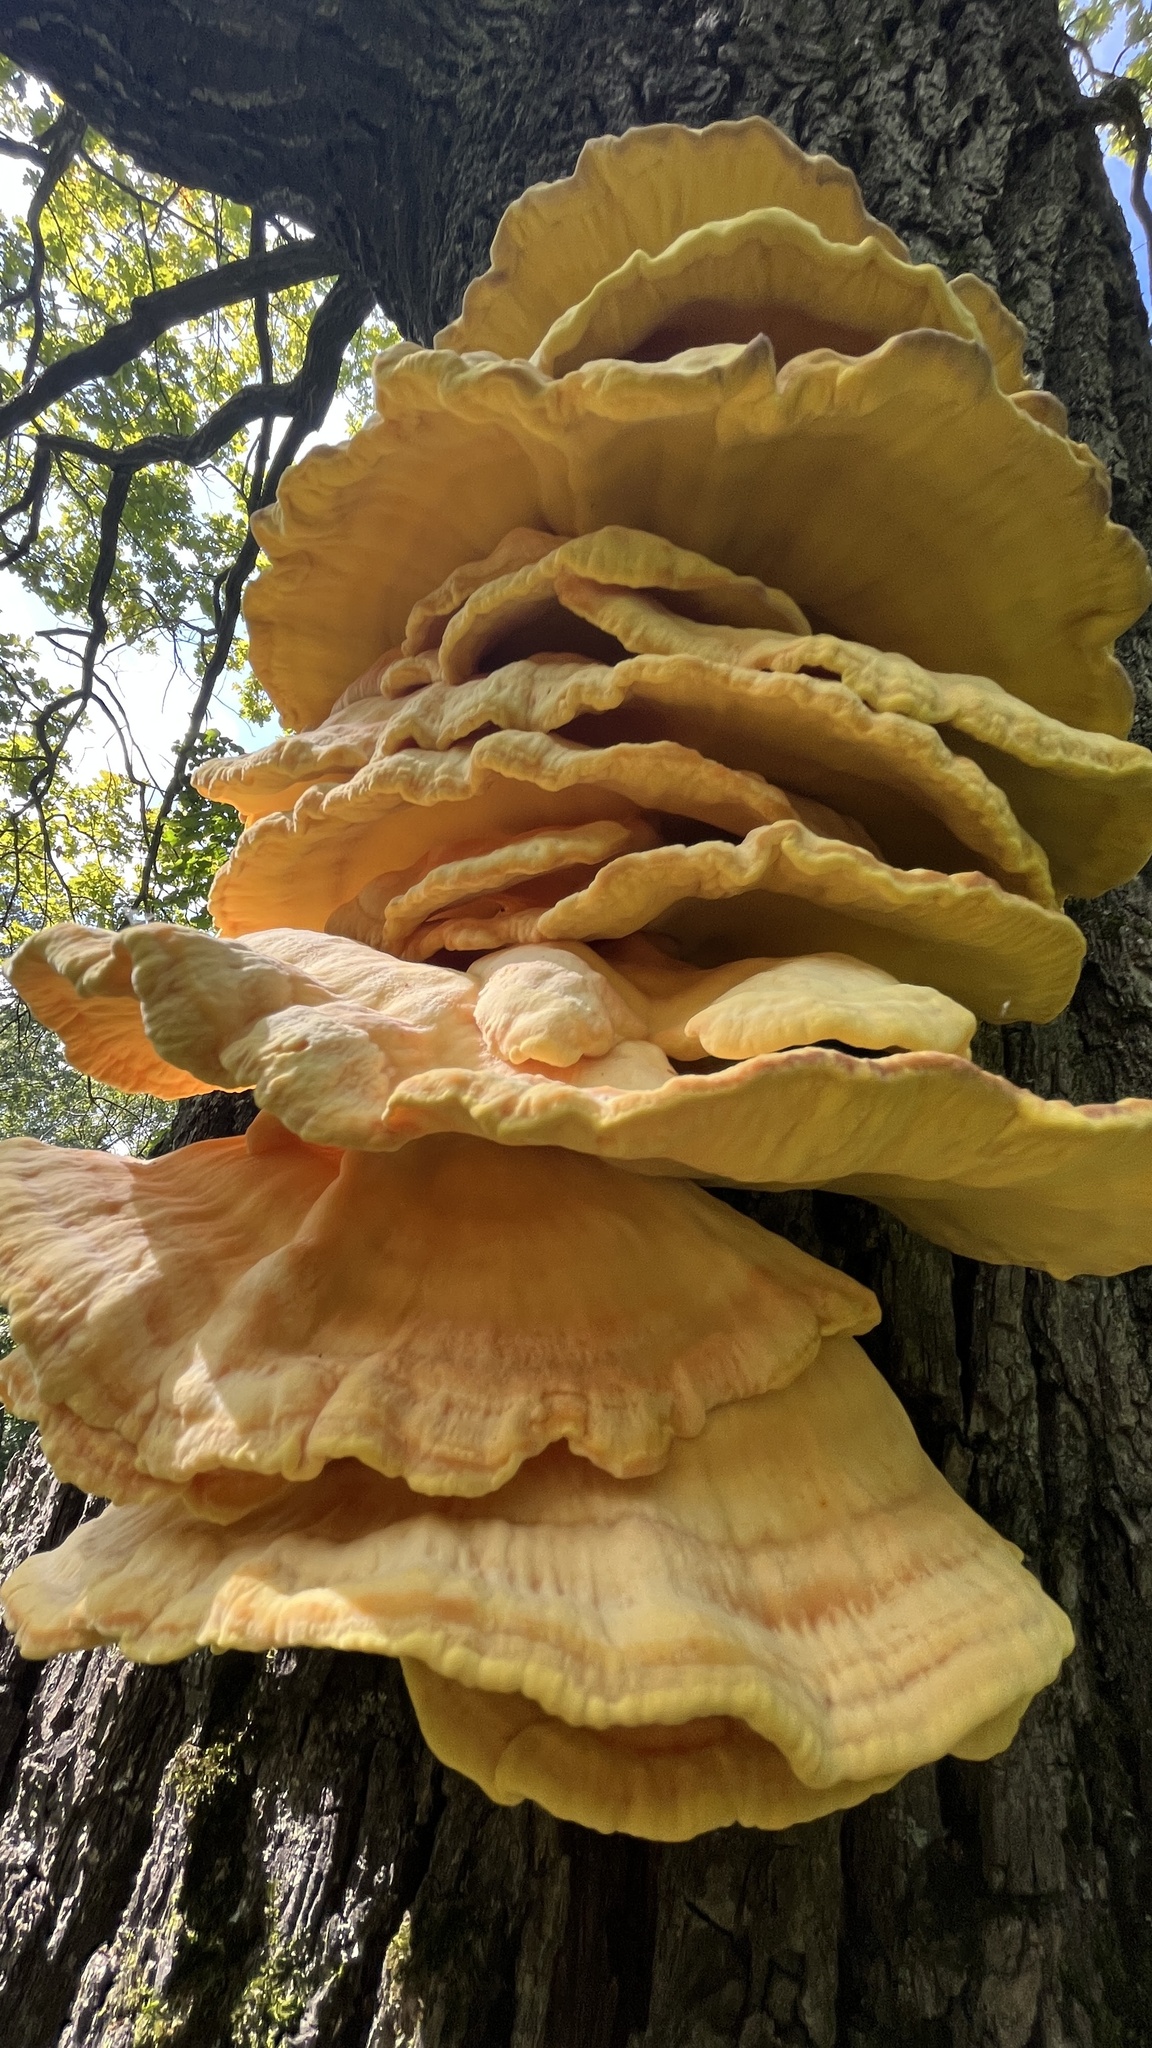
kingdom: Fungi
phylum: Basidiomycota
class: Agaricomycetes
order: Polyporales
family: Laetiporaceae
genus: Laetiporus
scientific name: Laetiporus sulphureus
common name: Chicken of the woods
